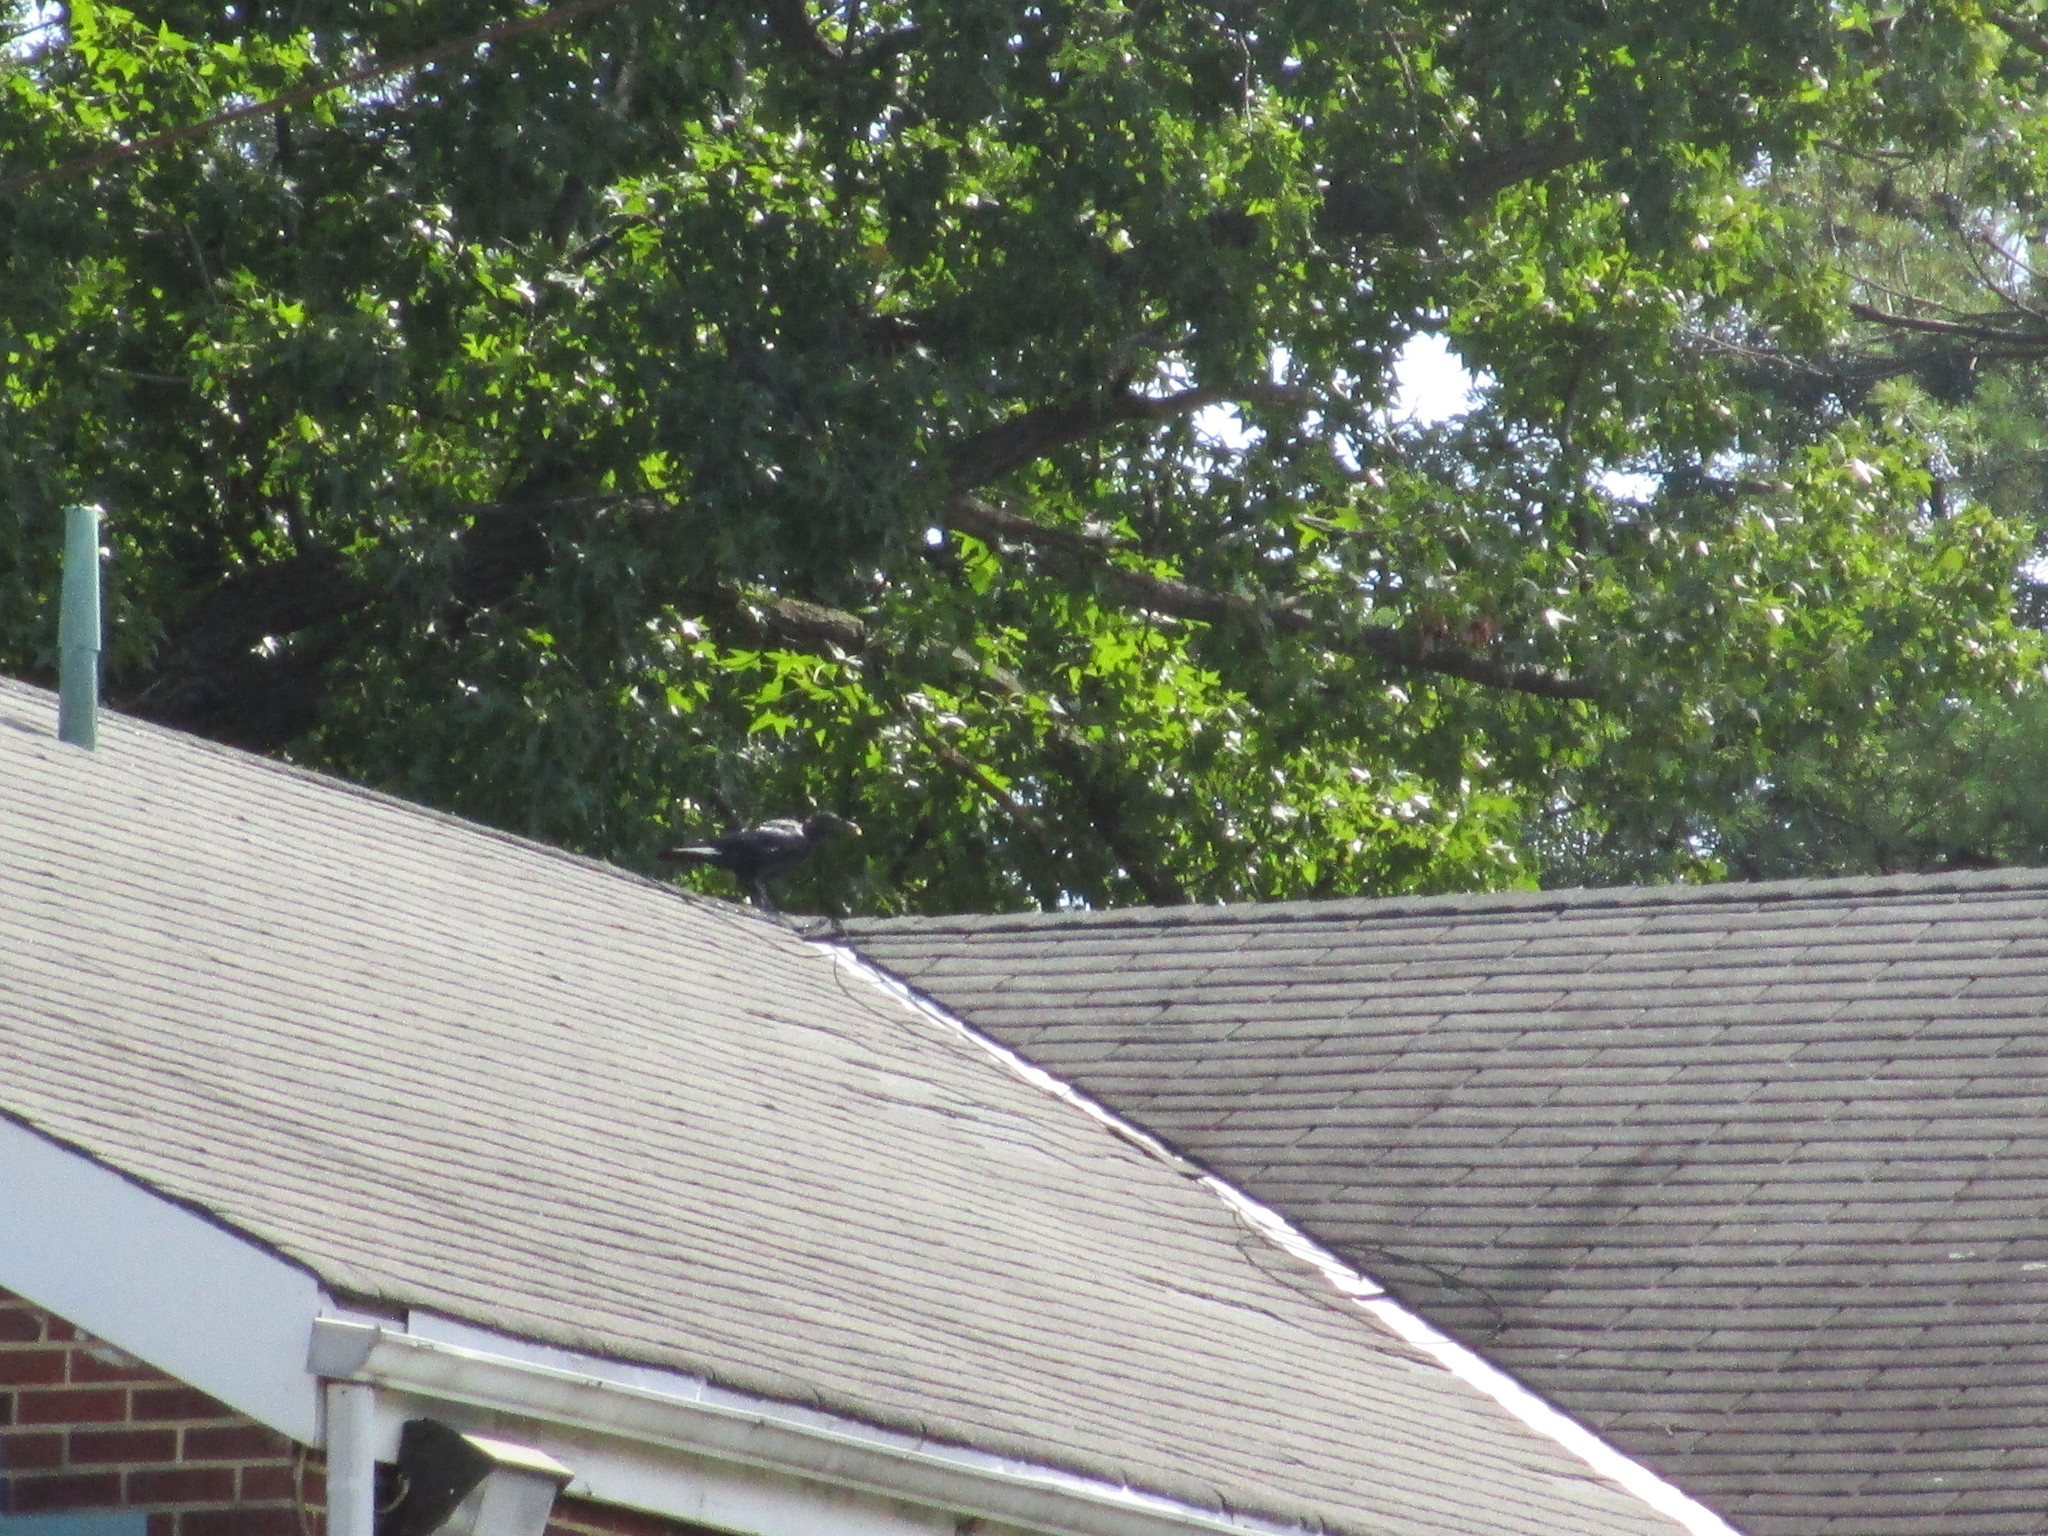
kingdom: Animalia
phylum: Chordata
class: Aves
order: Passeriformes
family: Corvidae
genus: Corvus
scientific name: Corvus brachyrhynchos
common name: American crow
